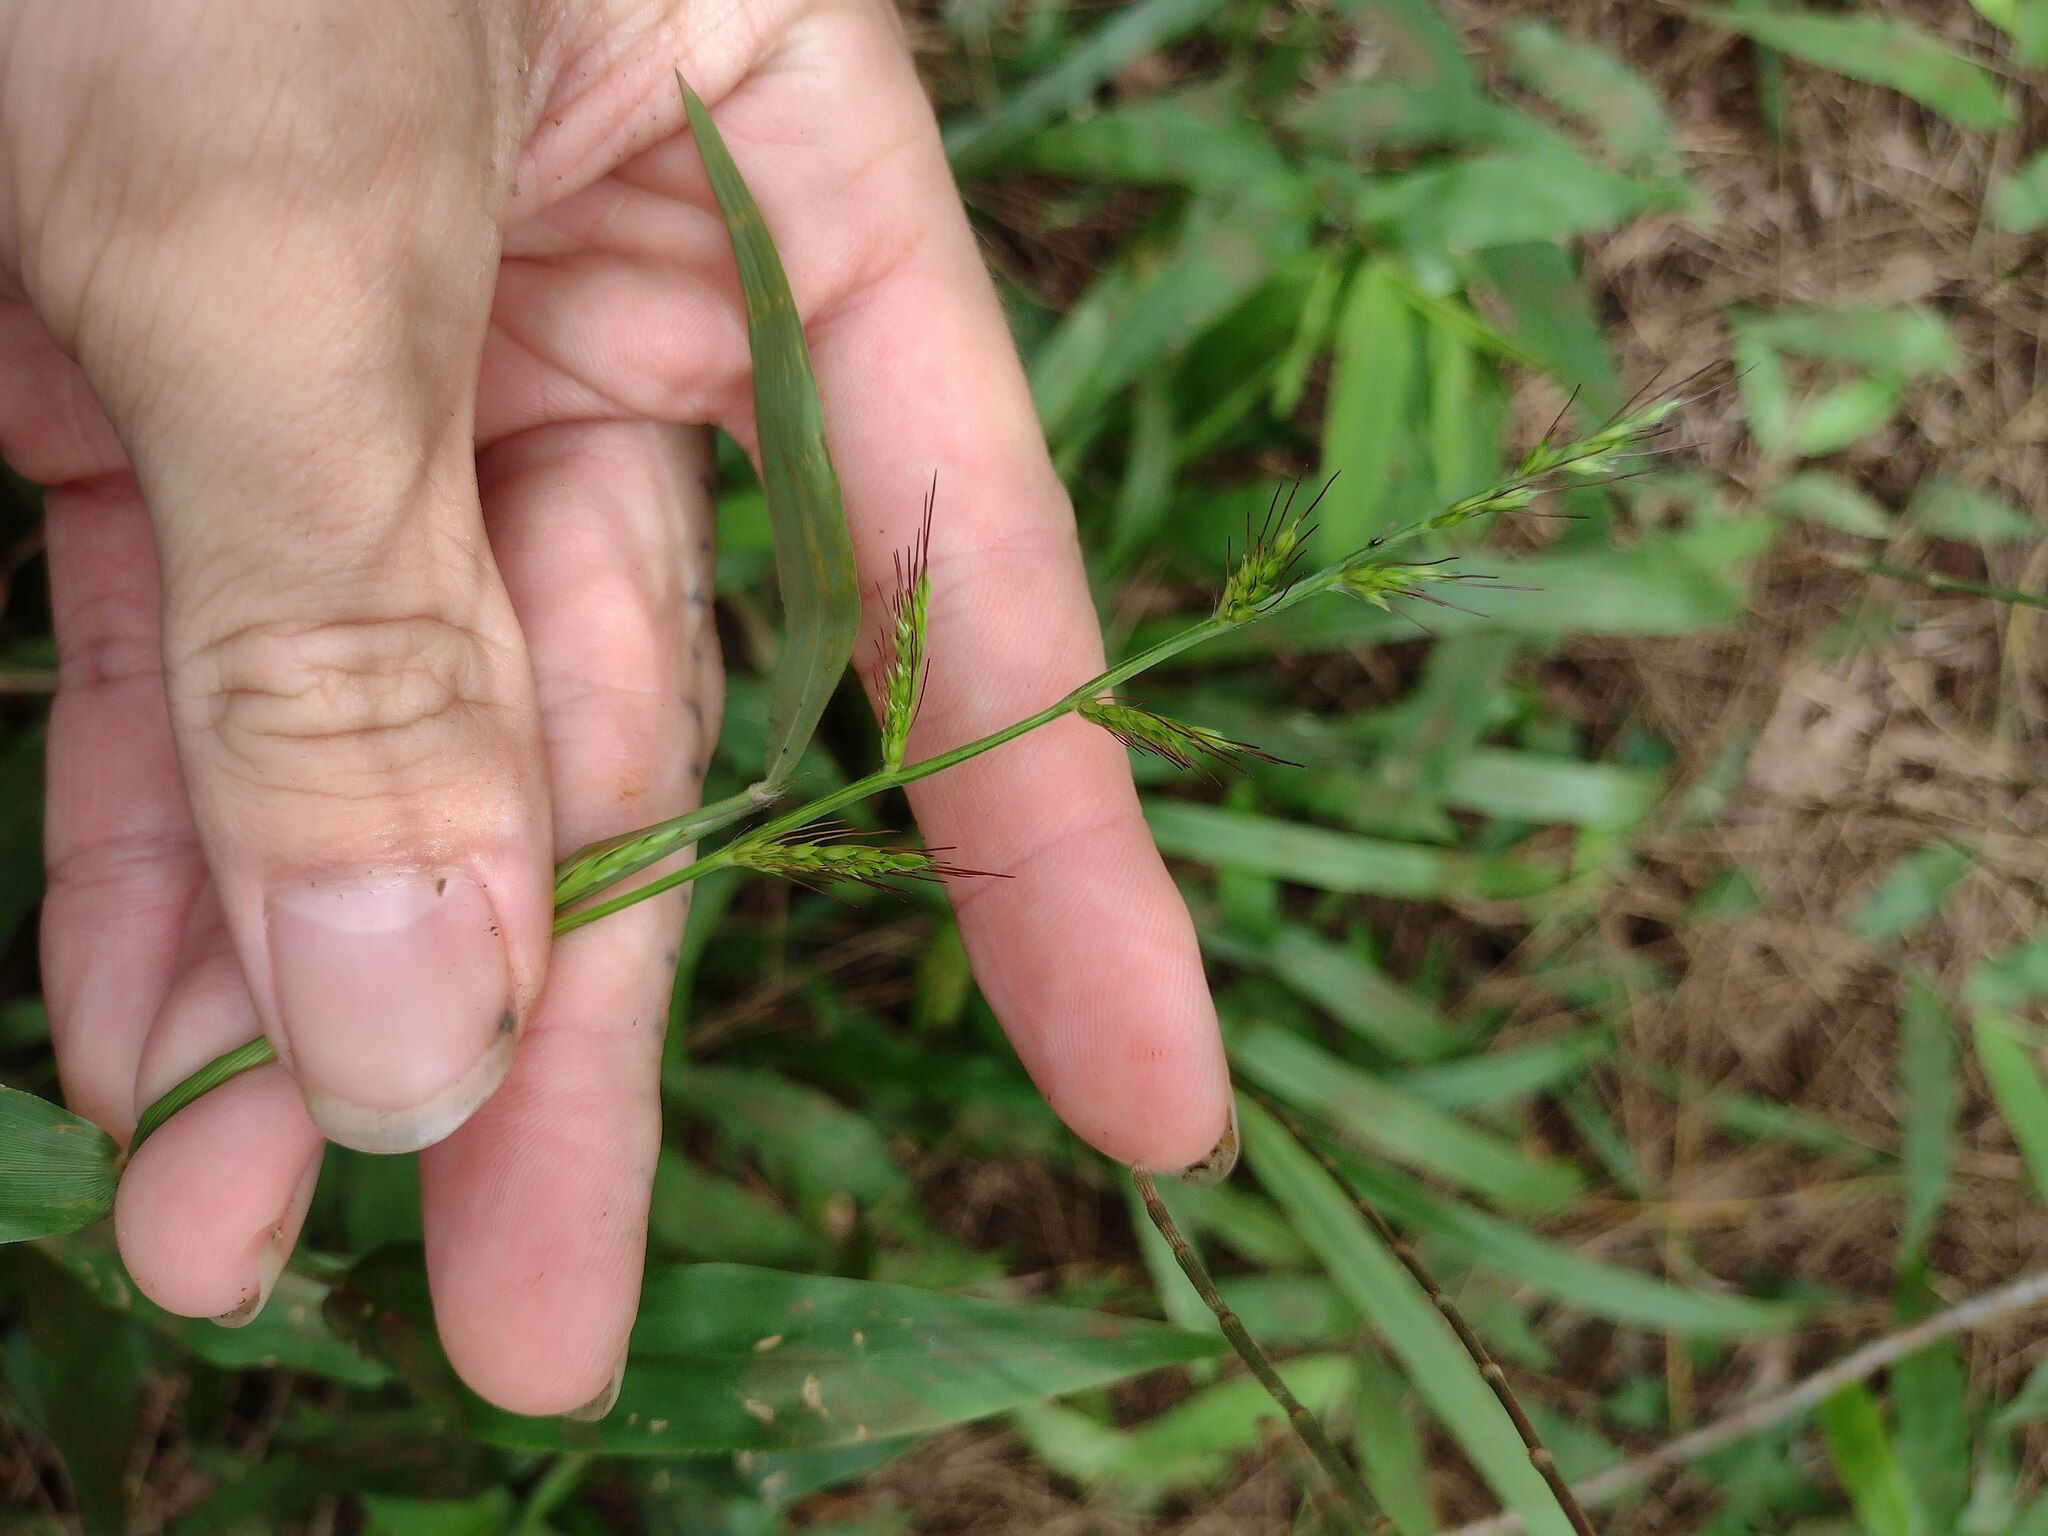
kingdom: Plantae
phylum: Tracheophyta
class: Liliopsida
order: Poales
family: Poaceae
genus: Oplismenus
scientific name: Oplismenus hirtellus
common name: Basketgrass
